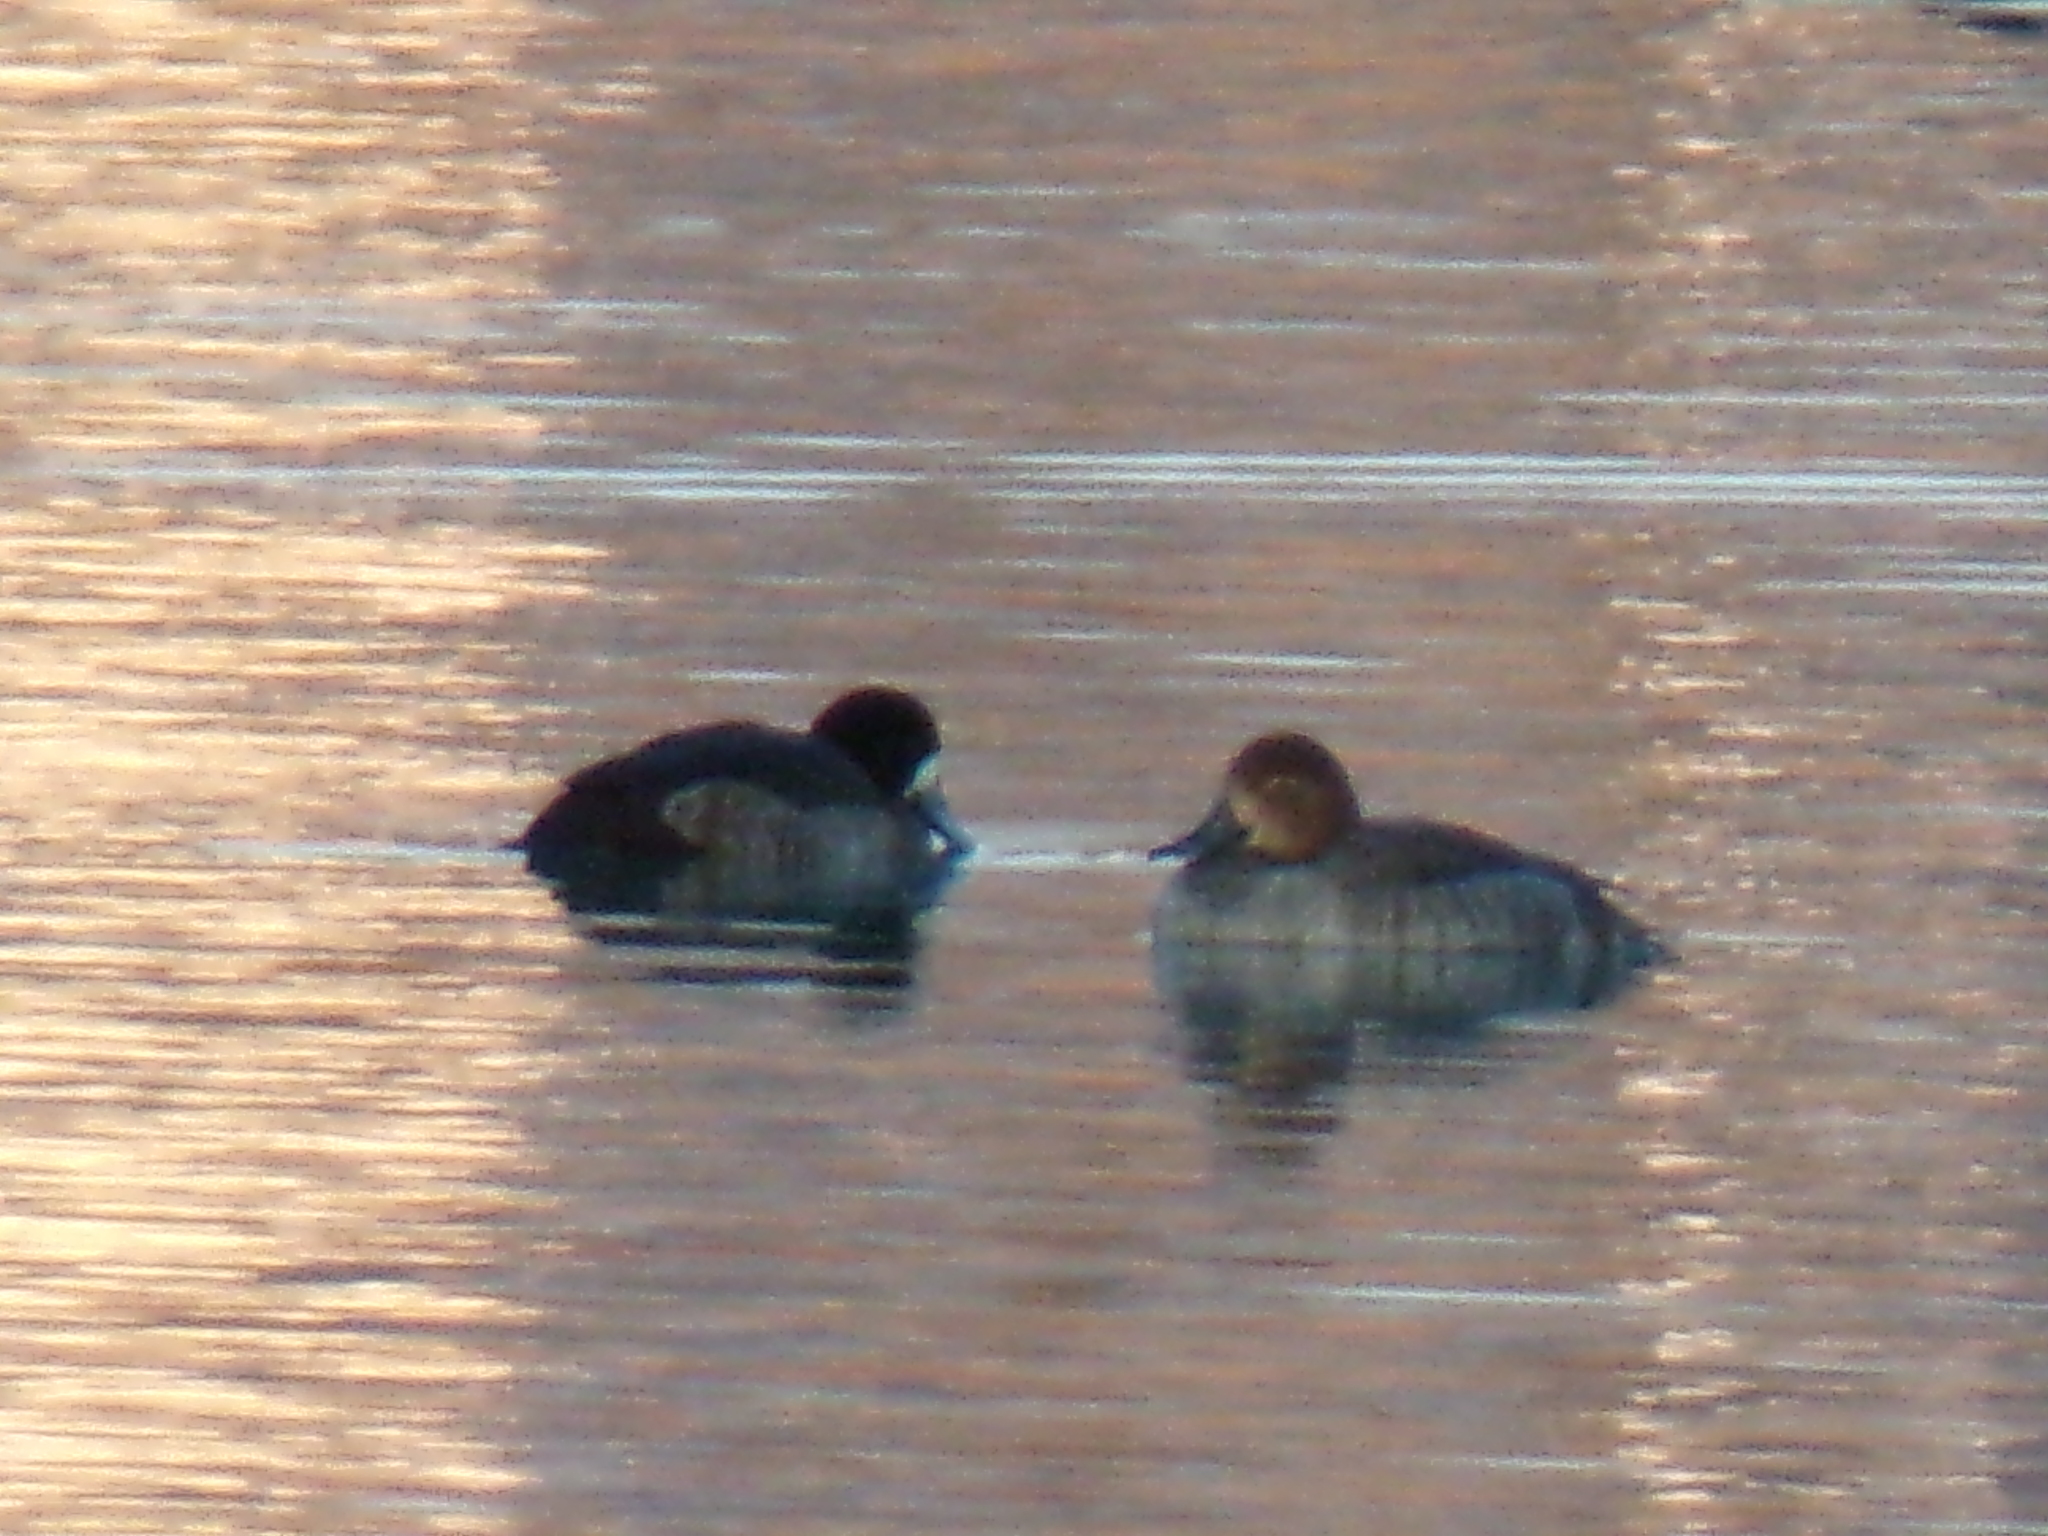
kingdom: Animalia
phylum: Chordata
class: Aves
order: Anseriformes
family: Anatidae
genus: Aythya
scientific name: Aythya marila
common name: Greater scaup
